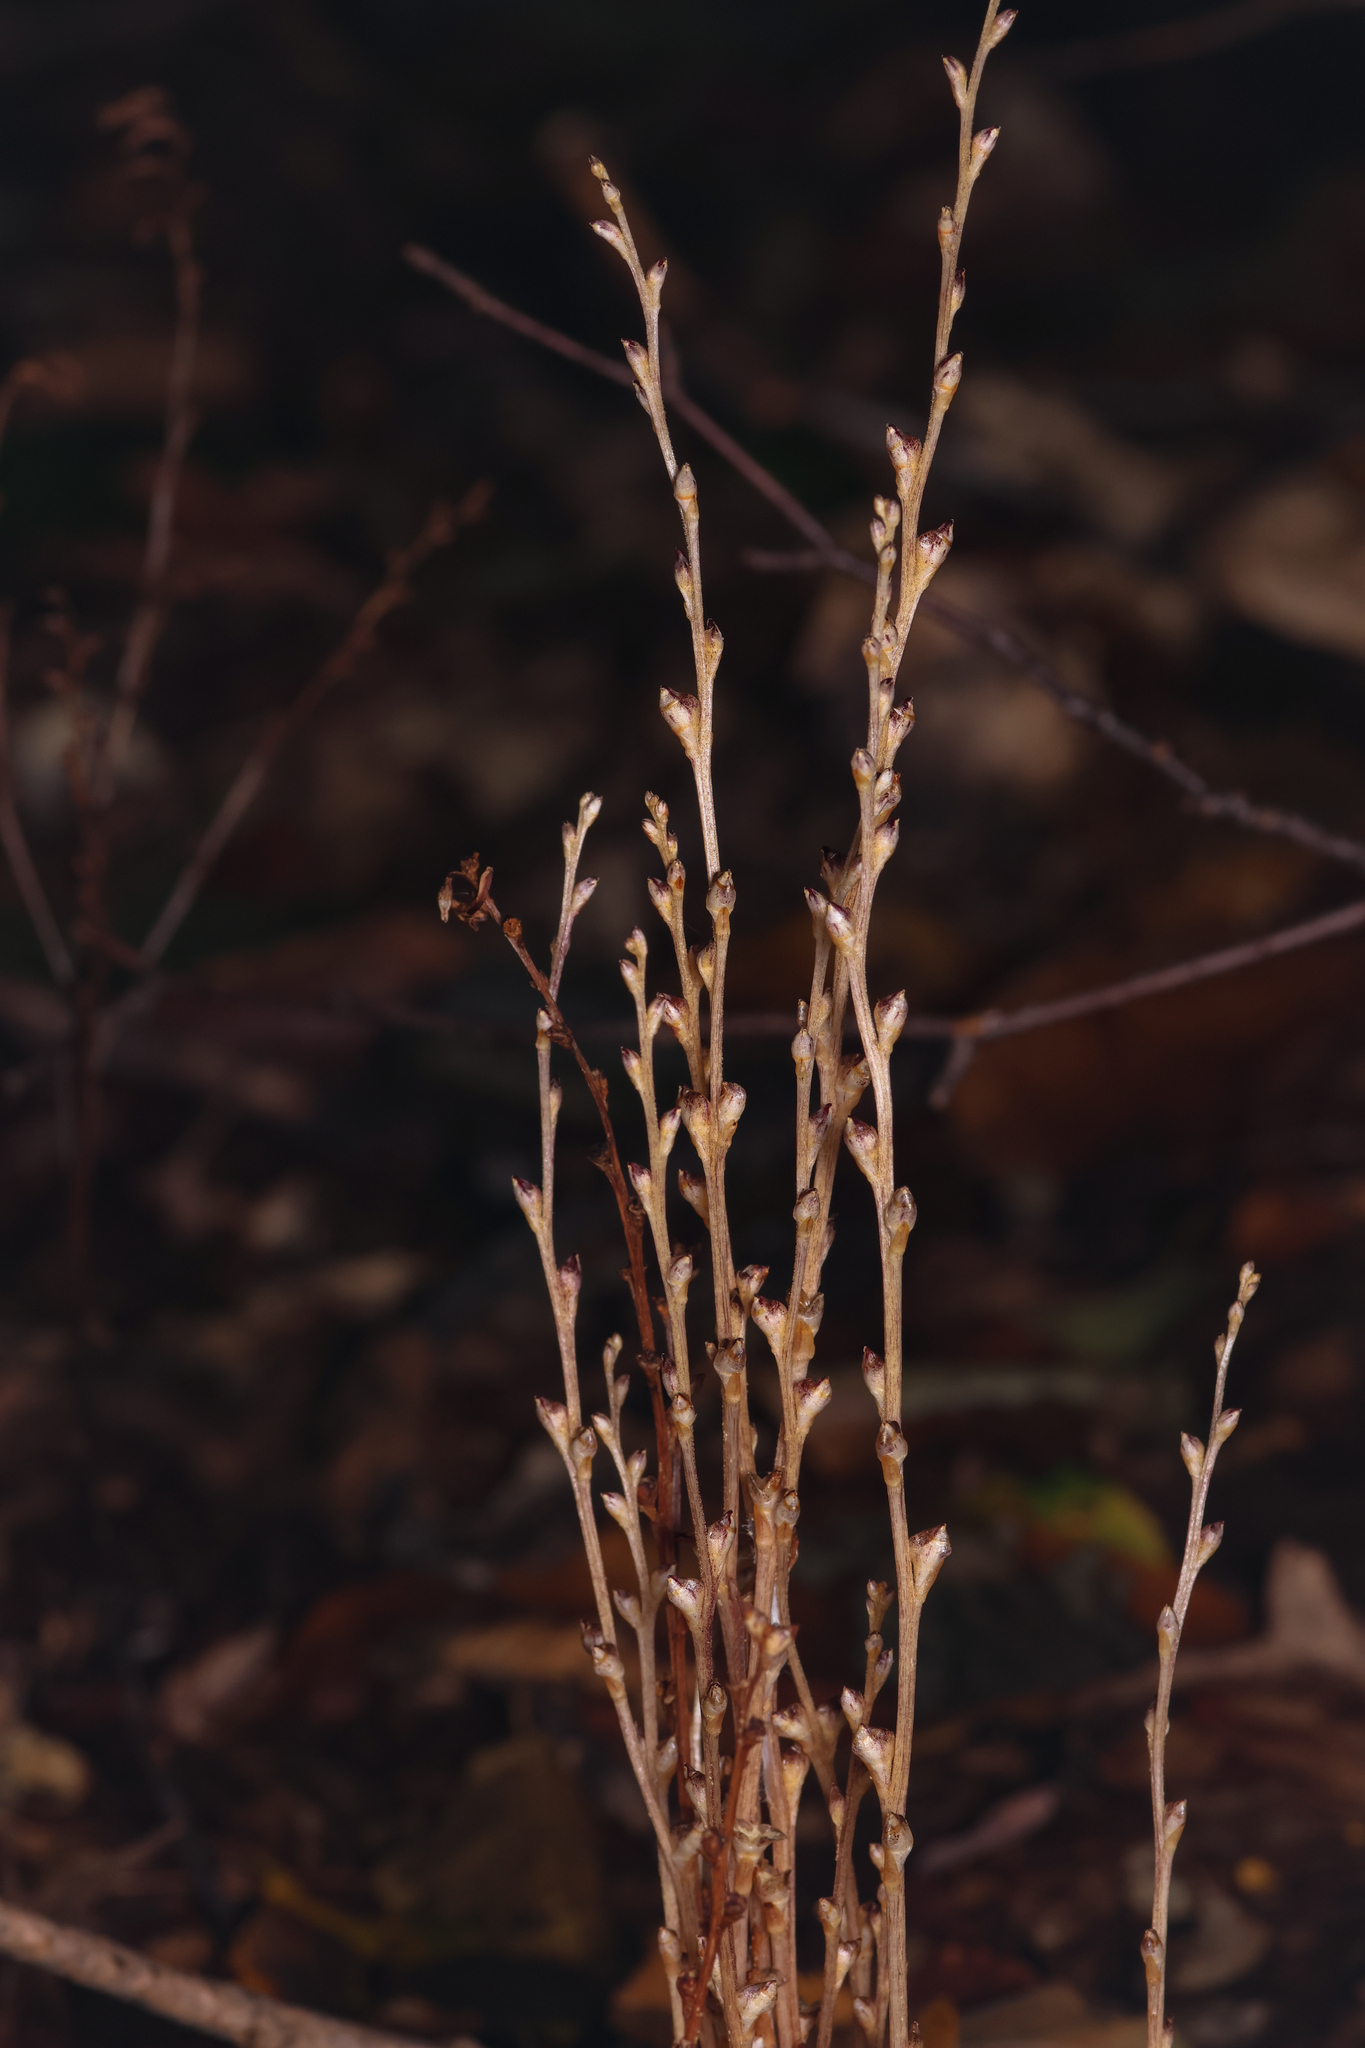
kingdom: Plantae
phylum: Tracheophyta
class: Magnoliopsida
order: Lamiales
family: Orobanchaceae
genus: Epifagus
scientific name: Epifagus virginiana
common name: Beechdrops
